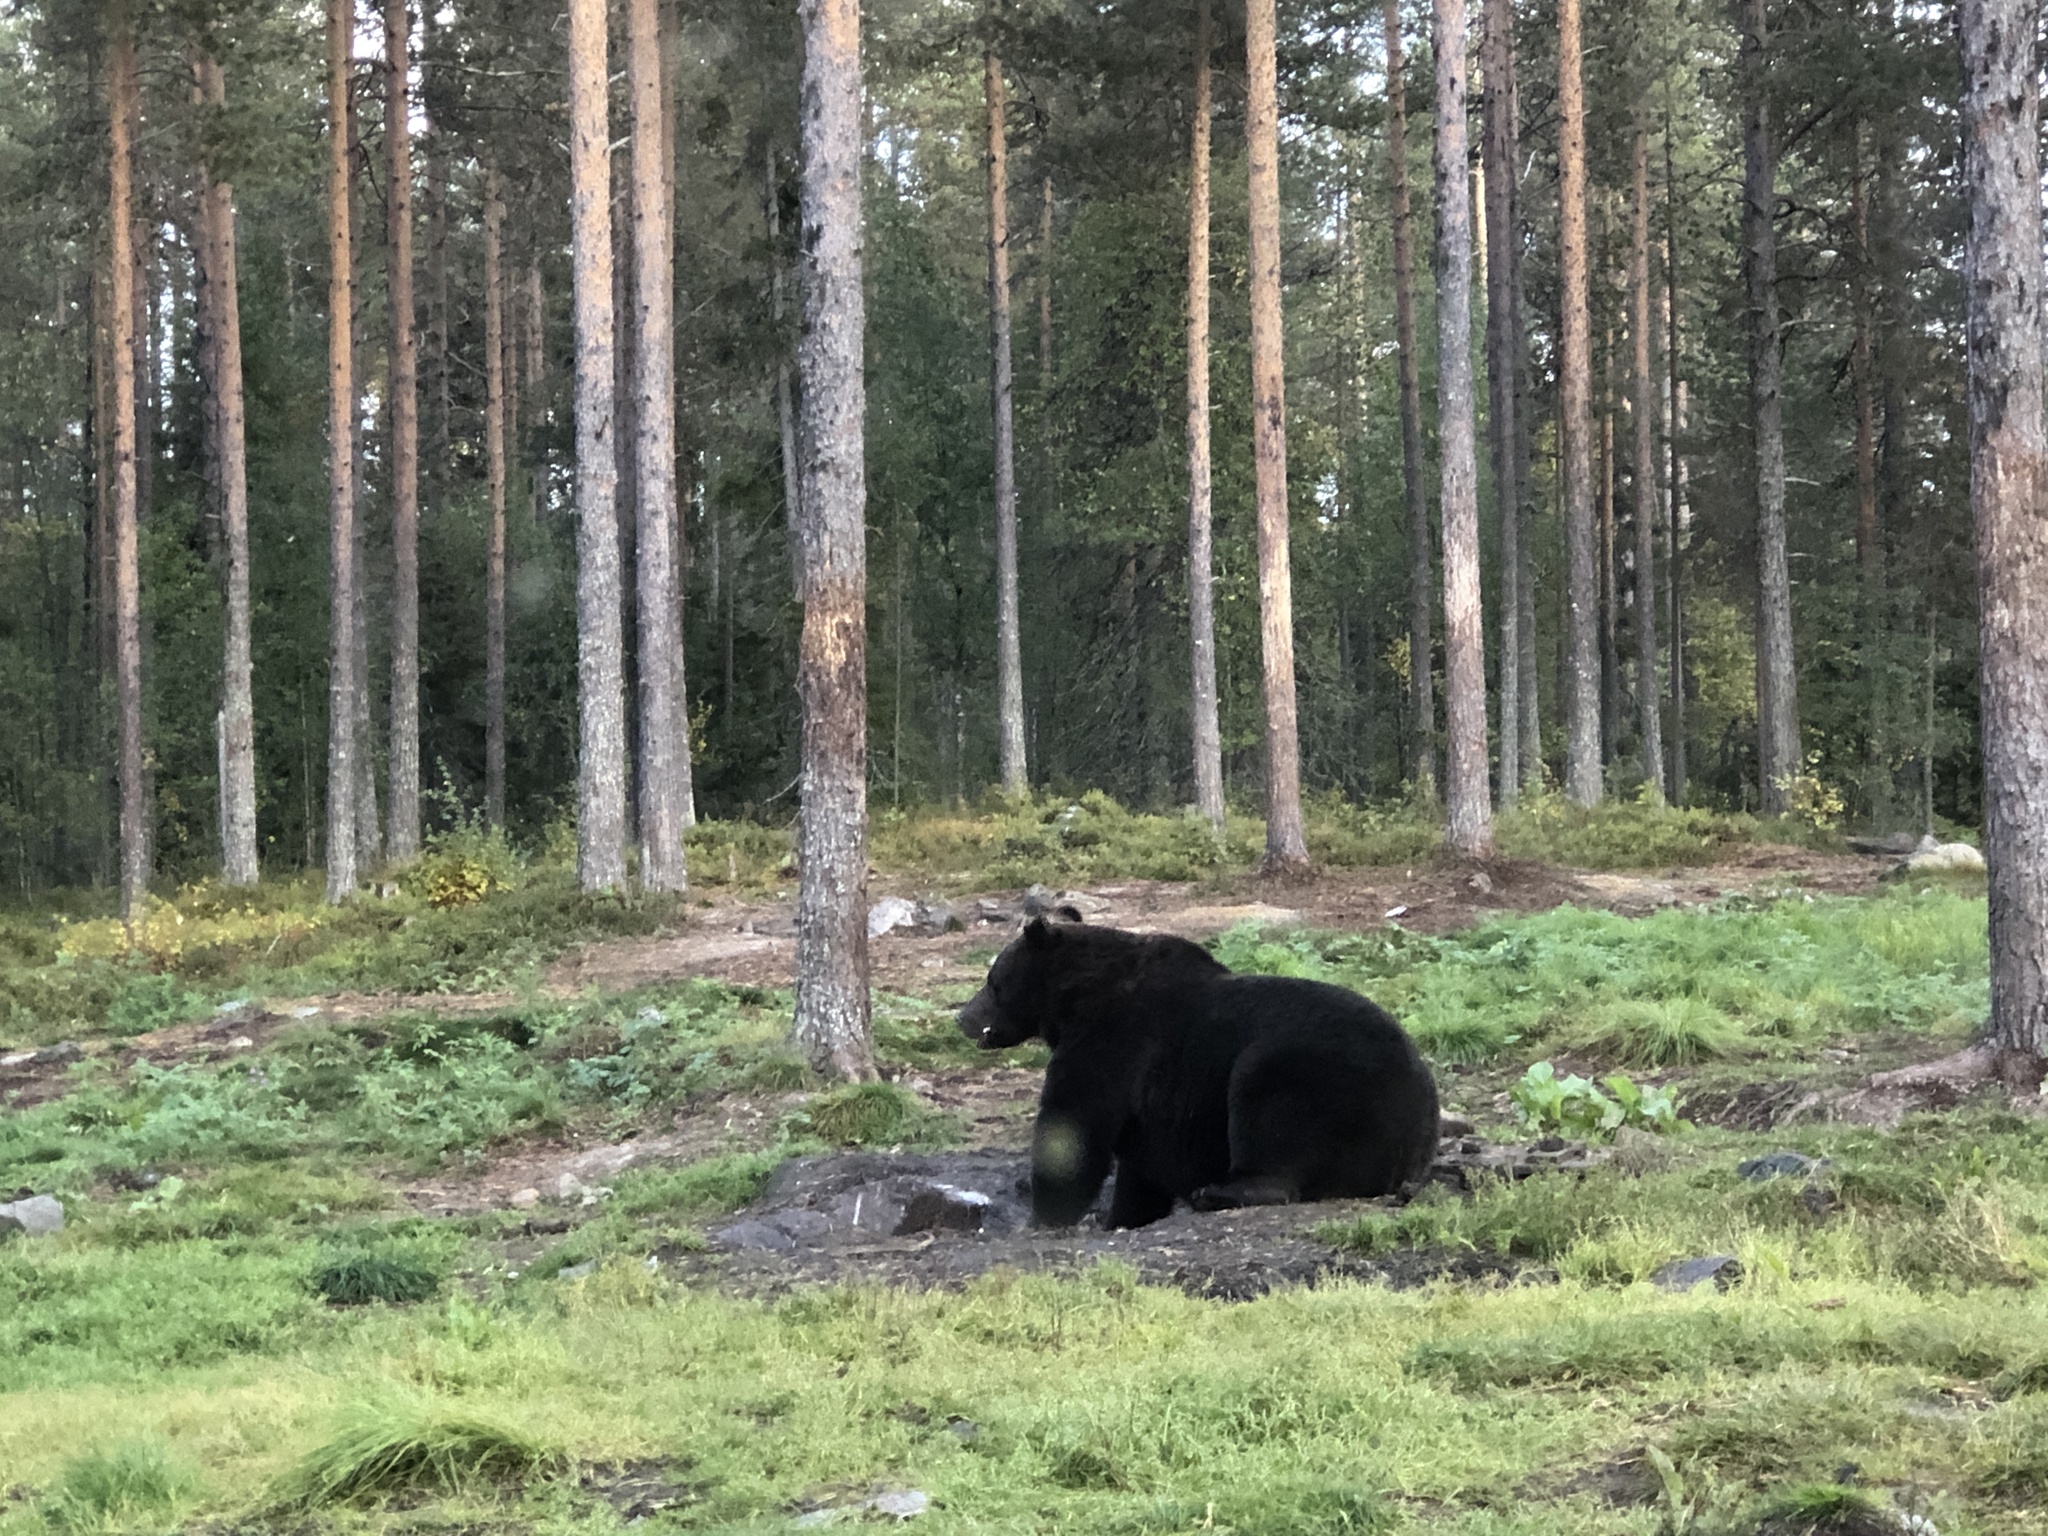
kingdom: Animalia
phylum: Chordata
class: Mammalia
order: Carnivora
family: Ursidae
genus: Ursus
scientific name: Ursus arctos
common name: Brown bear
